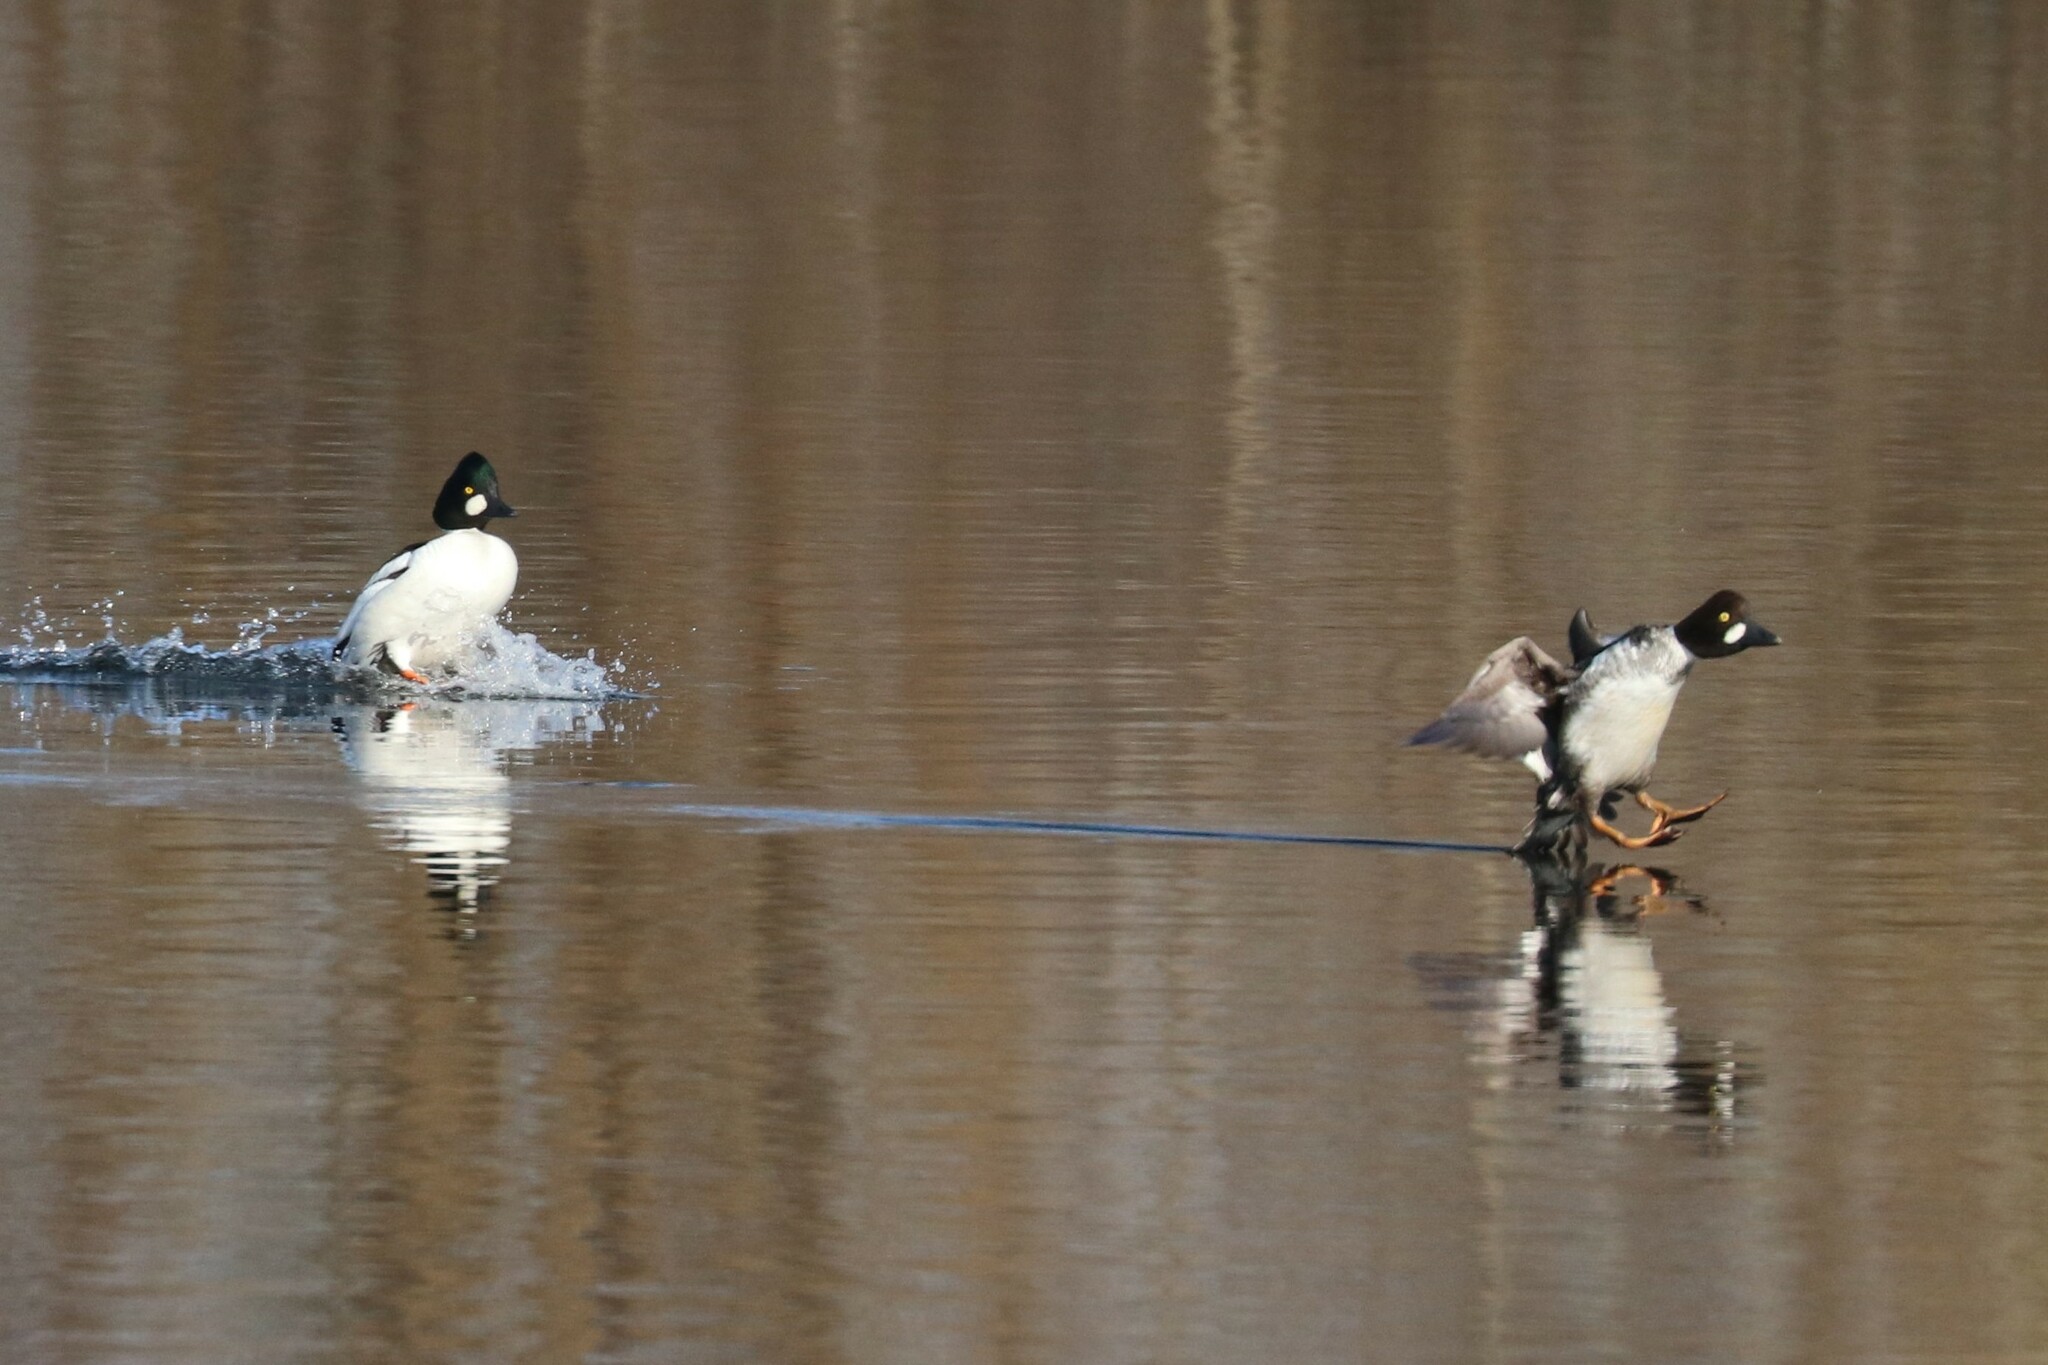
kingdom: Animalia
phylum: Chordata
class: Aves
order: Anseriformes
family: Anatidae
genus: Bucephala
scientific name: Bucephala clangula
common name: Common goldeneye
